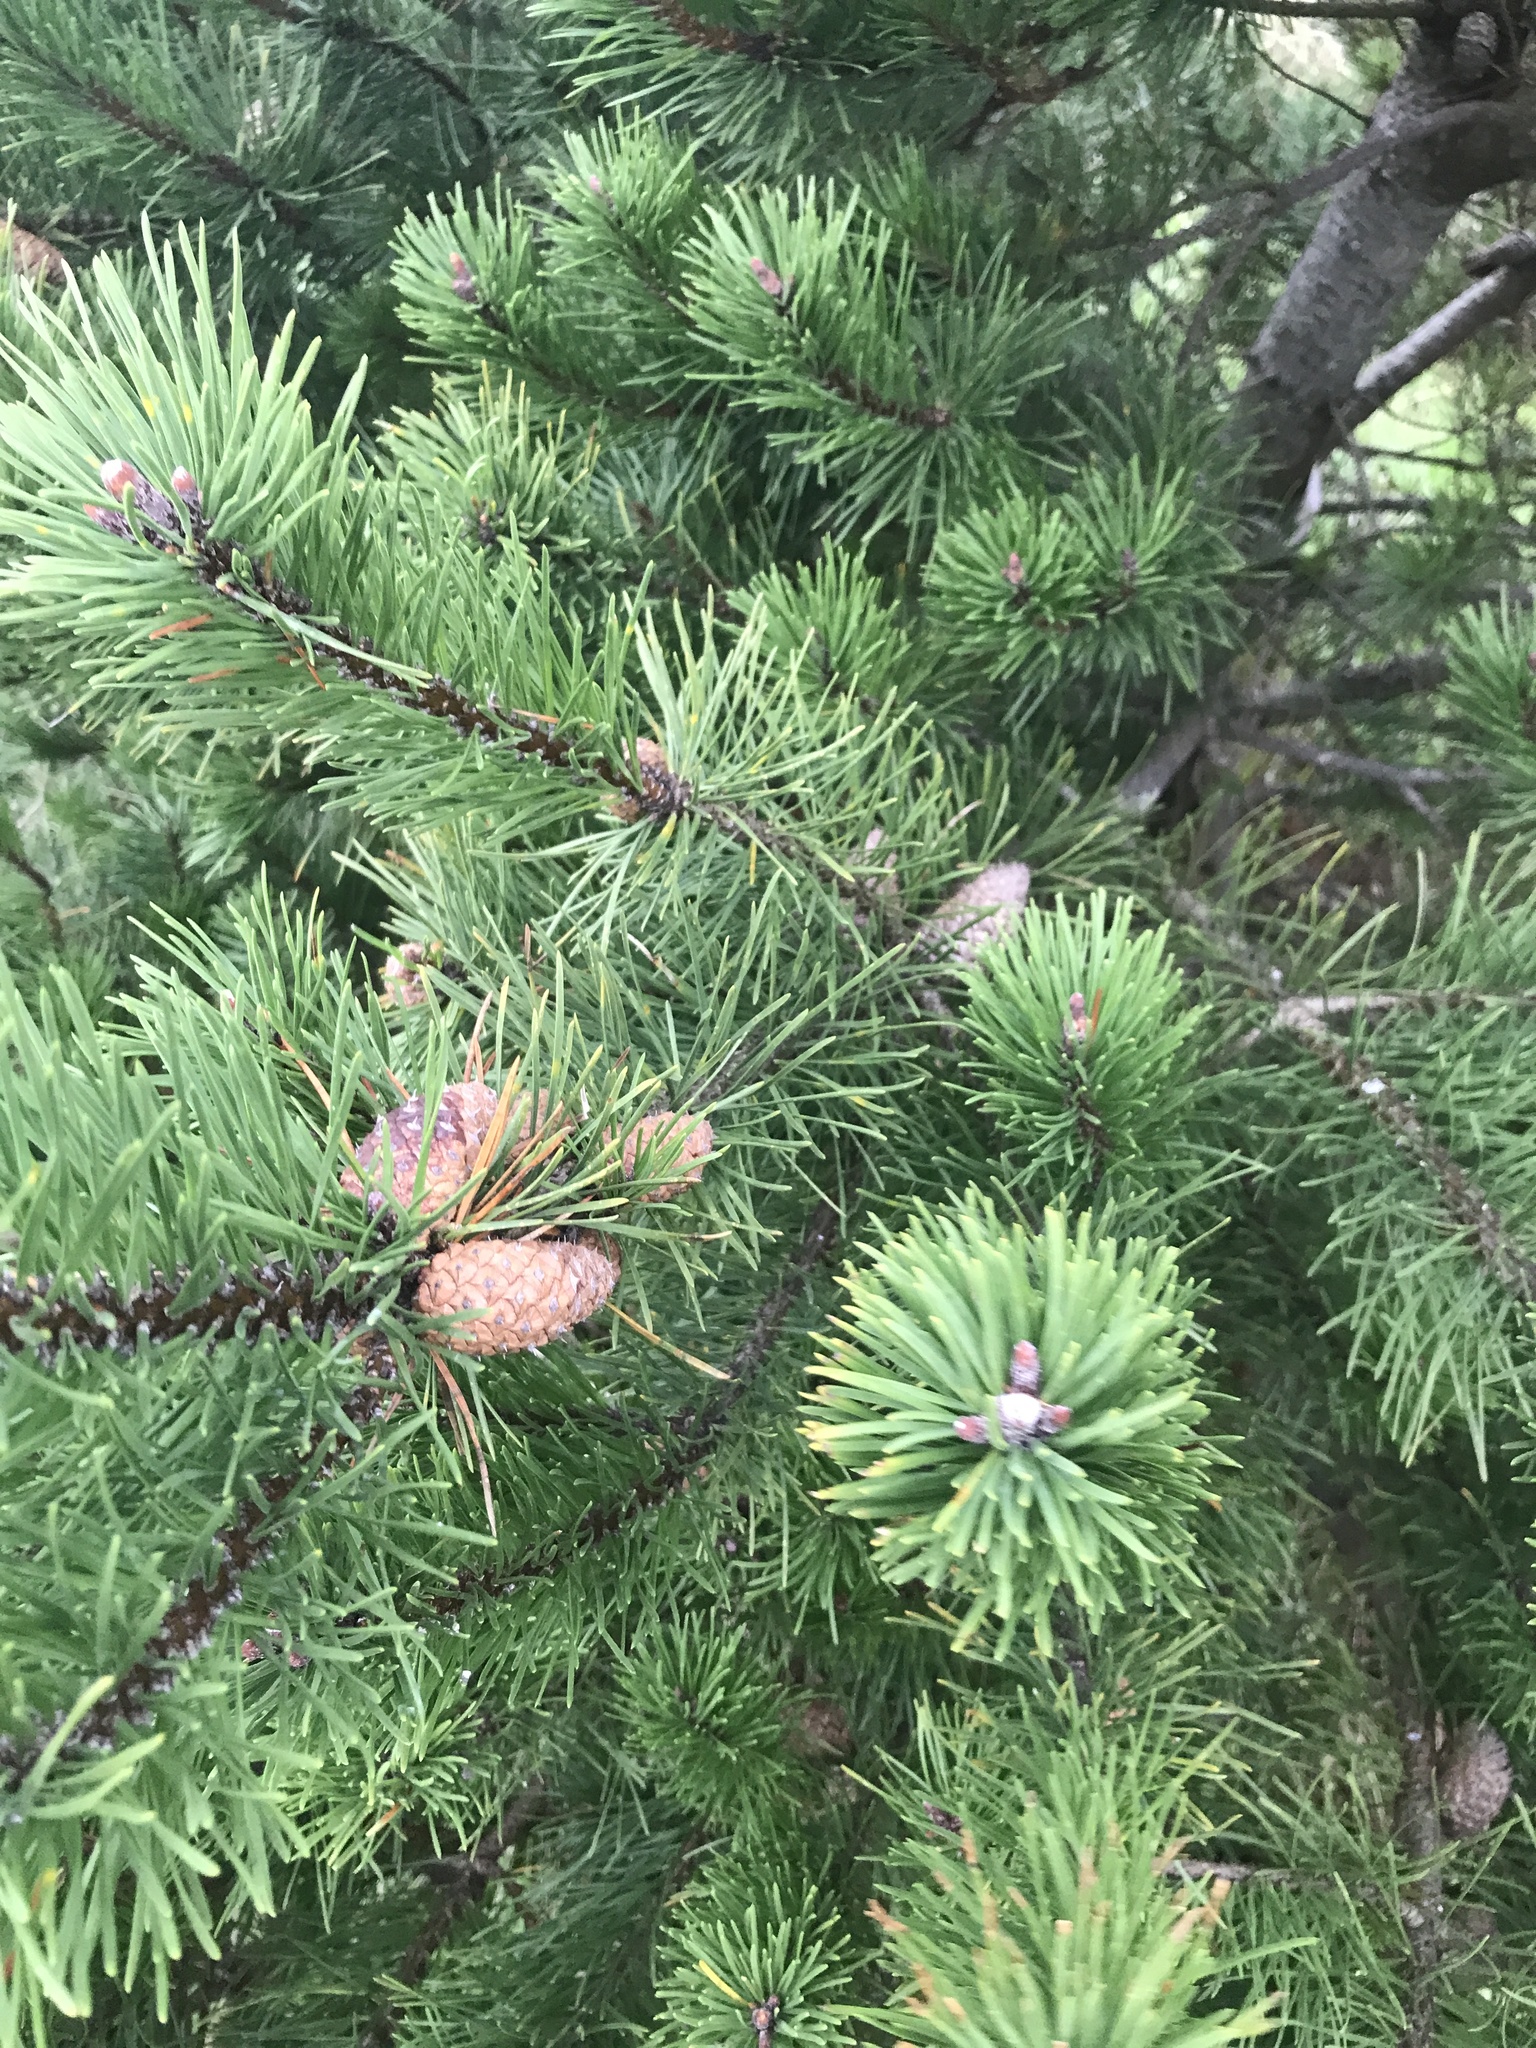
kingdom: Plantae
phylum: Tracheophyta
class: Pinopsida
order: Pinales
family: Pinaceae
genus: Pinus
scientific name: Pinus contorta
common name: Lodgepole pine
